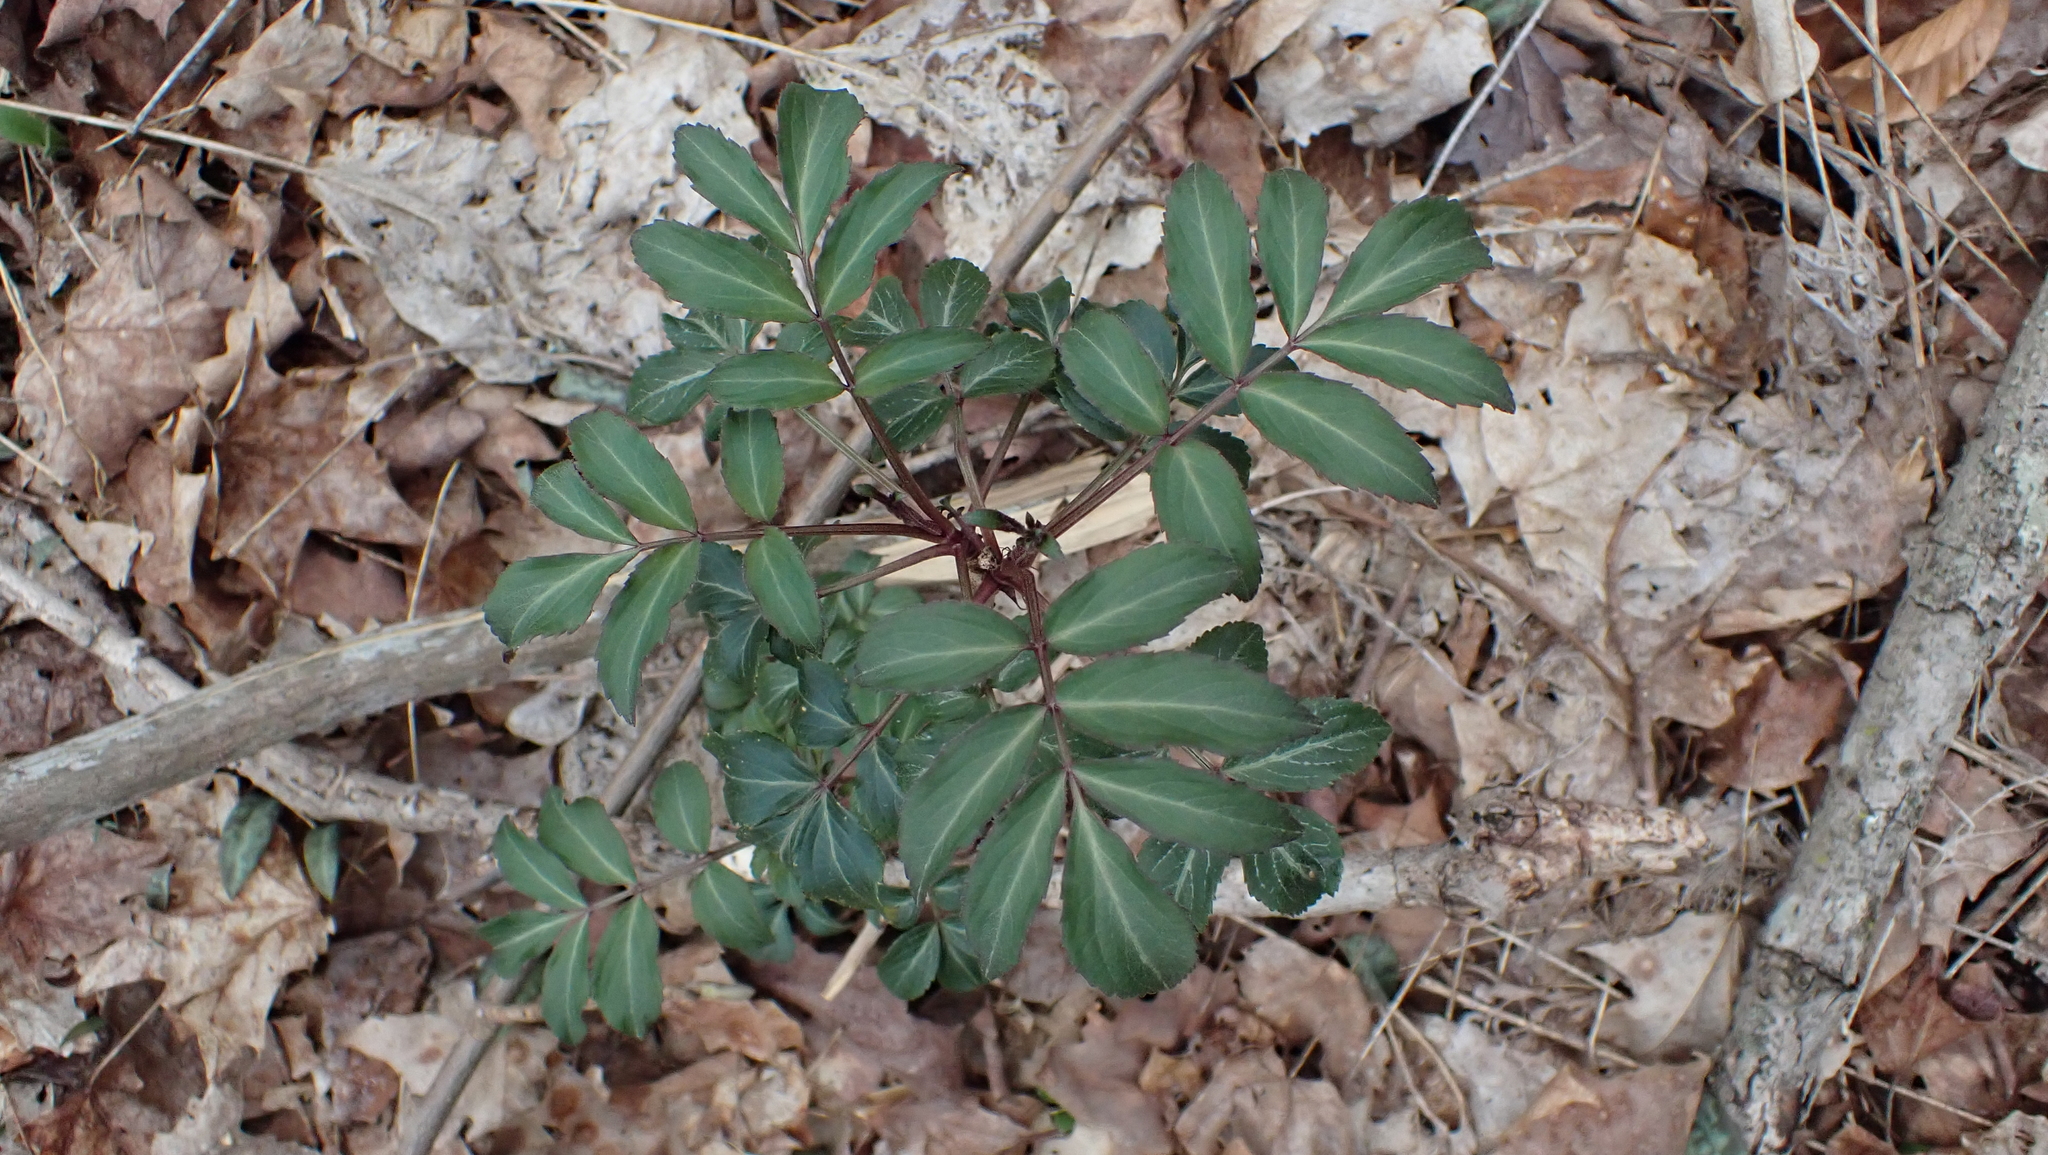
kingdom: Plantae
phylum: Tracheophyta
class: Magnoliopsida
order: Dipsacales
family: Viburnaceae
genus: Sambucus
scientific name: Sambucus canadensis
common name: American elder
